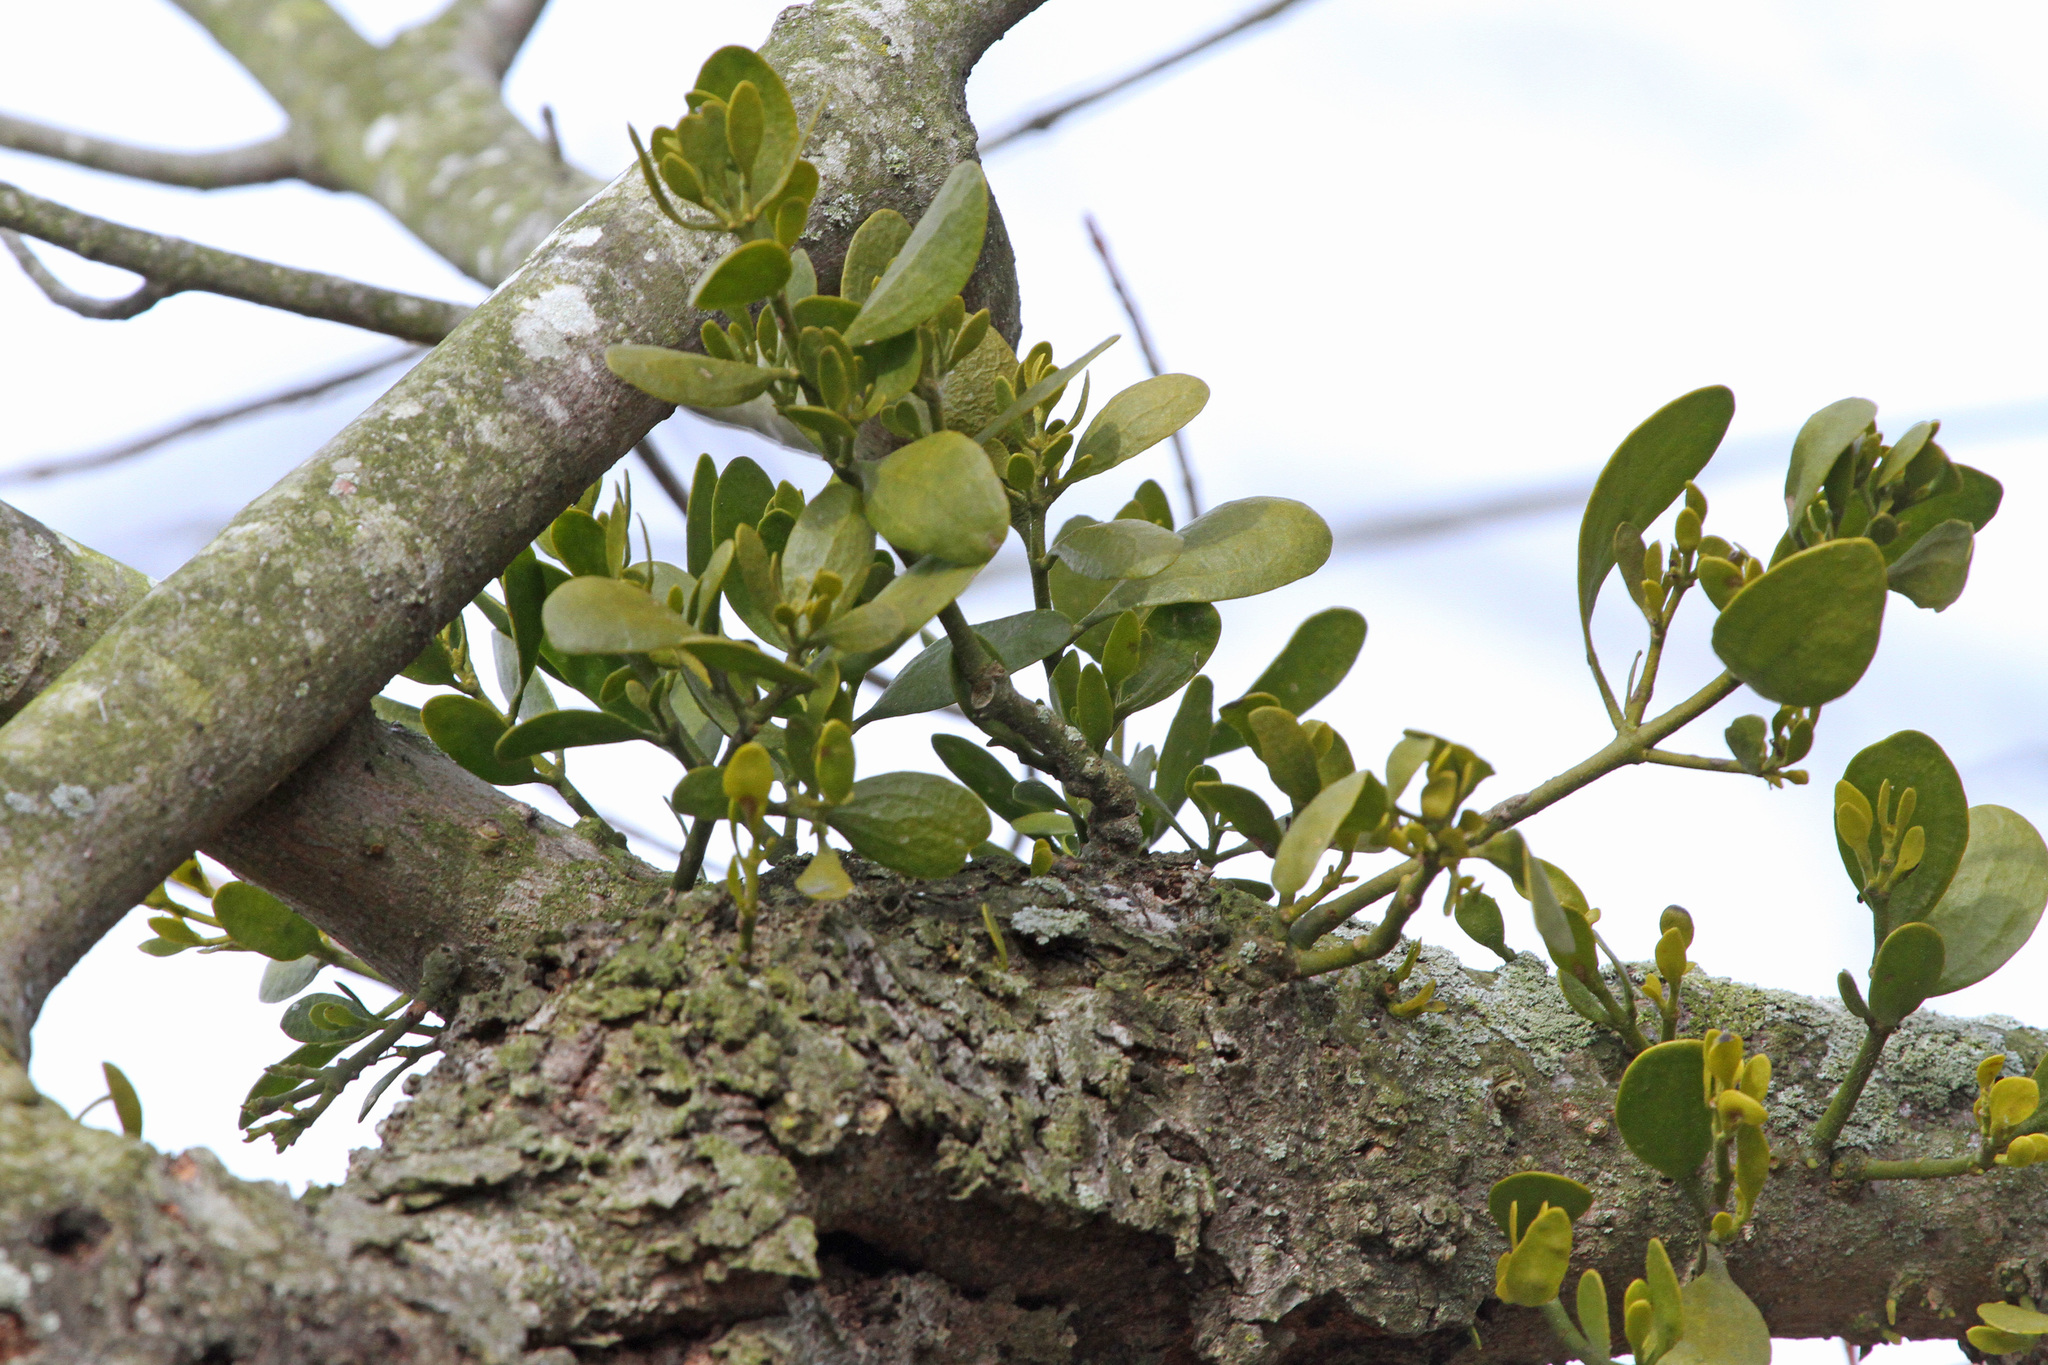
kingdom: Plantae
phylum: Tracheophyta
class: Magnoliopsida
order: Santalales
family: Viscaceae
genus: Phoradendron
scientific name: Phoradendron leucarpum
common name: Pacific mistletoe
